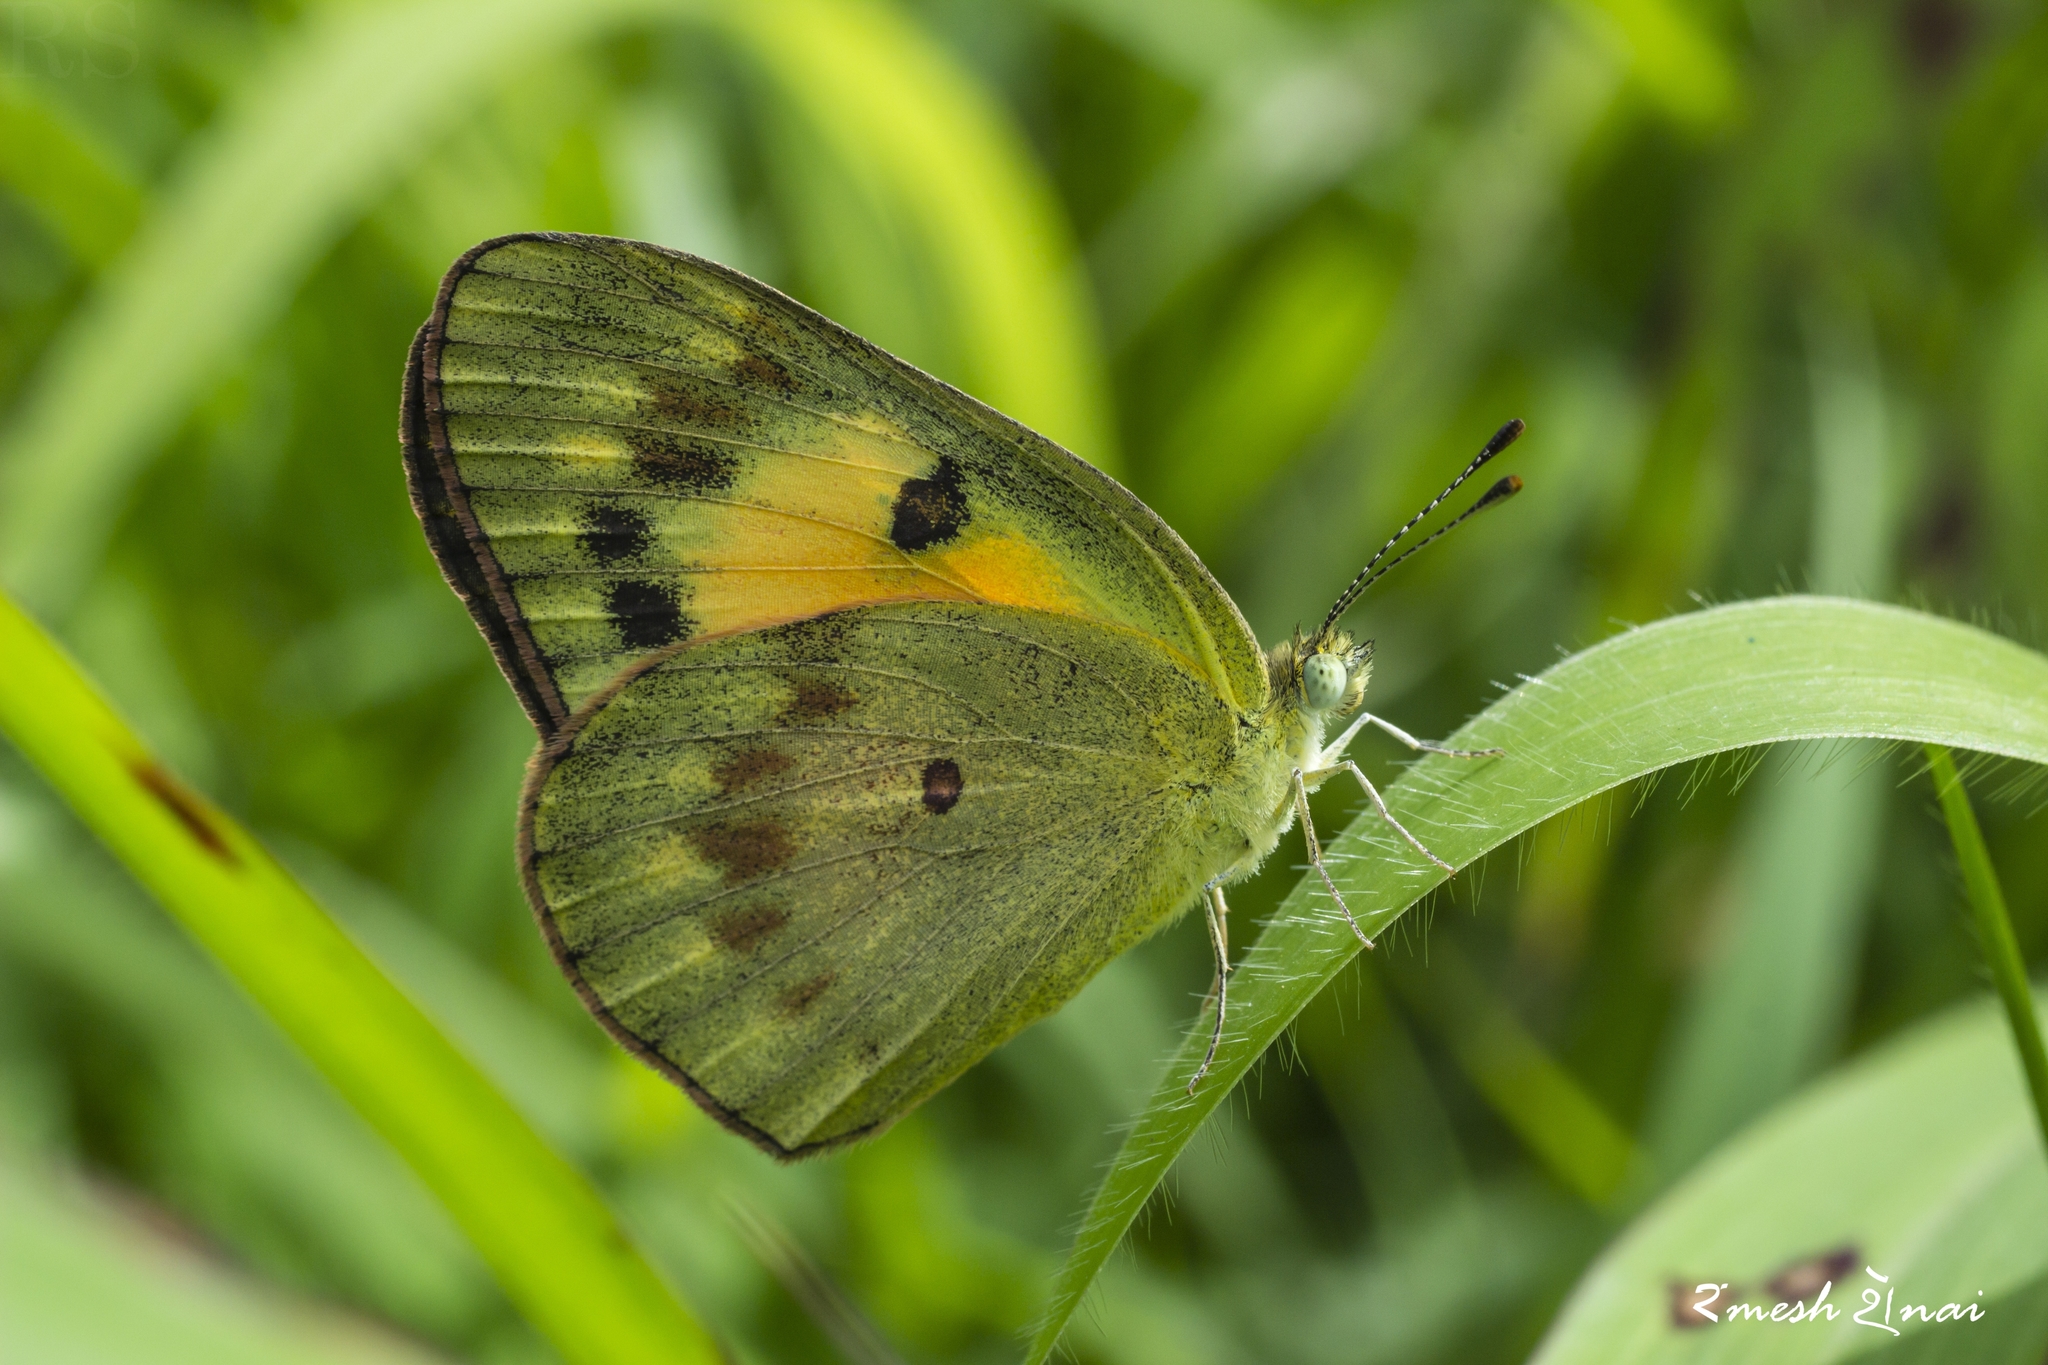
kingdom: Animalia
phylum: Arthropoda
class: Insecta
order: Lepidoptera
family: Pieridae
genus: Colotis
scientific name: Colotis amata
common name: Small salmon arab
